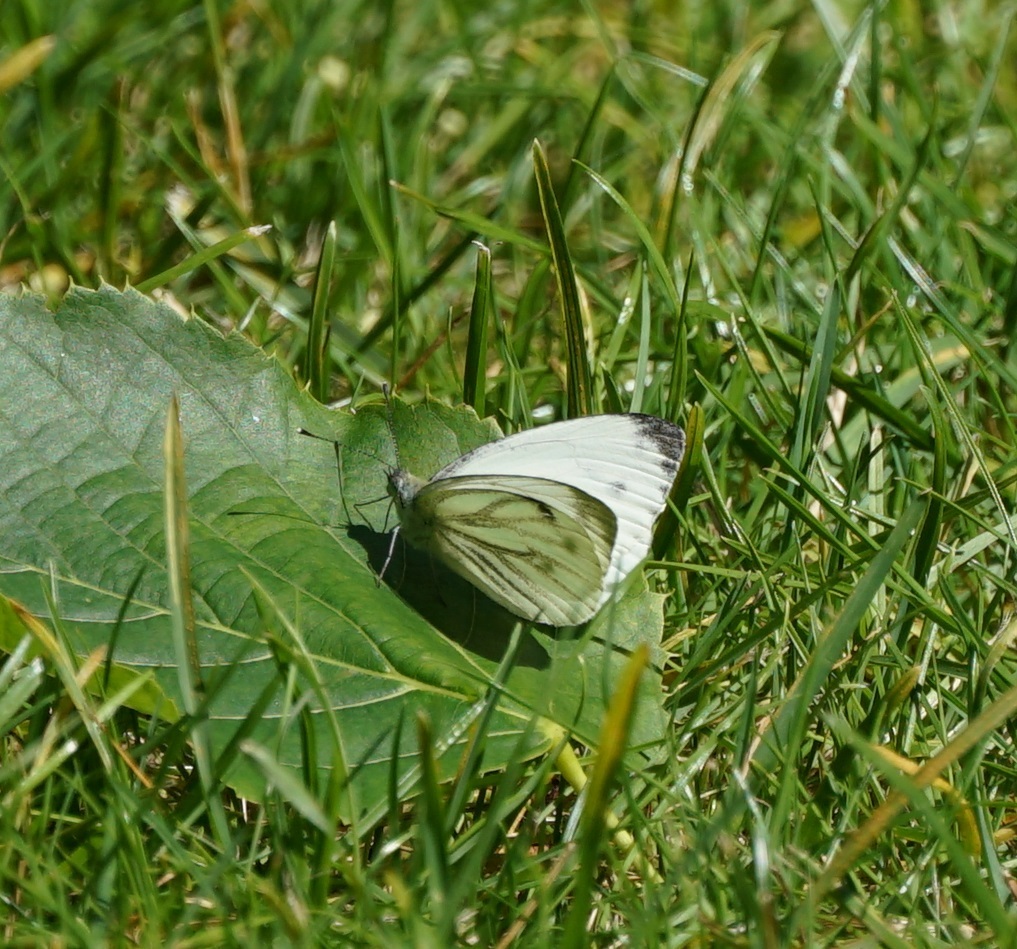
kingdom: Animalia
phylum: Arthropoda
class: Insecta
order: Lepidoptera
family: Pieridae
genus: Pieris
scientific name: Pieris napi
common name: Green-veined white
